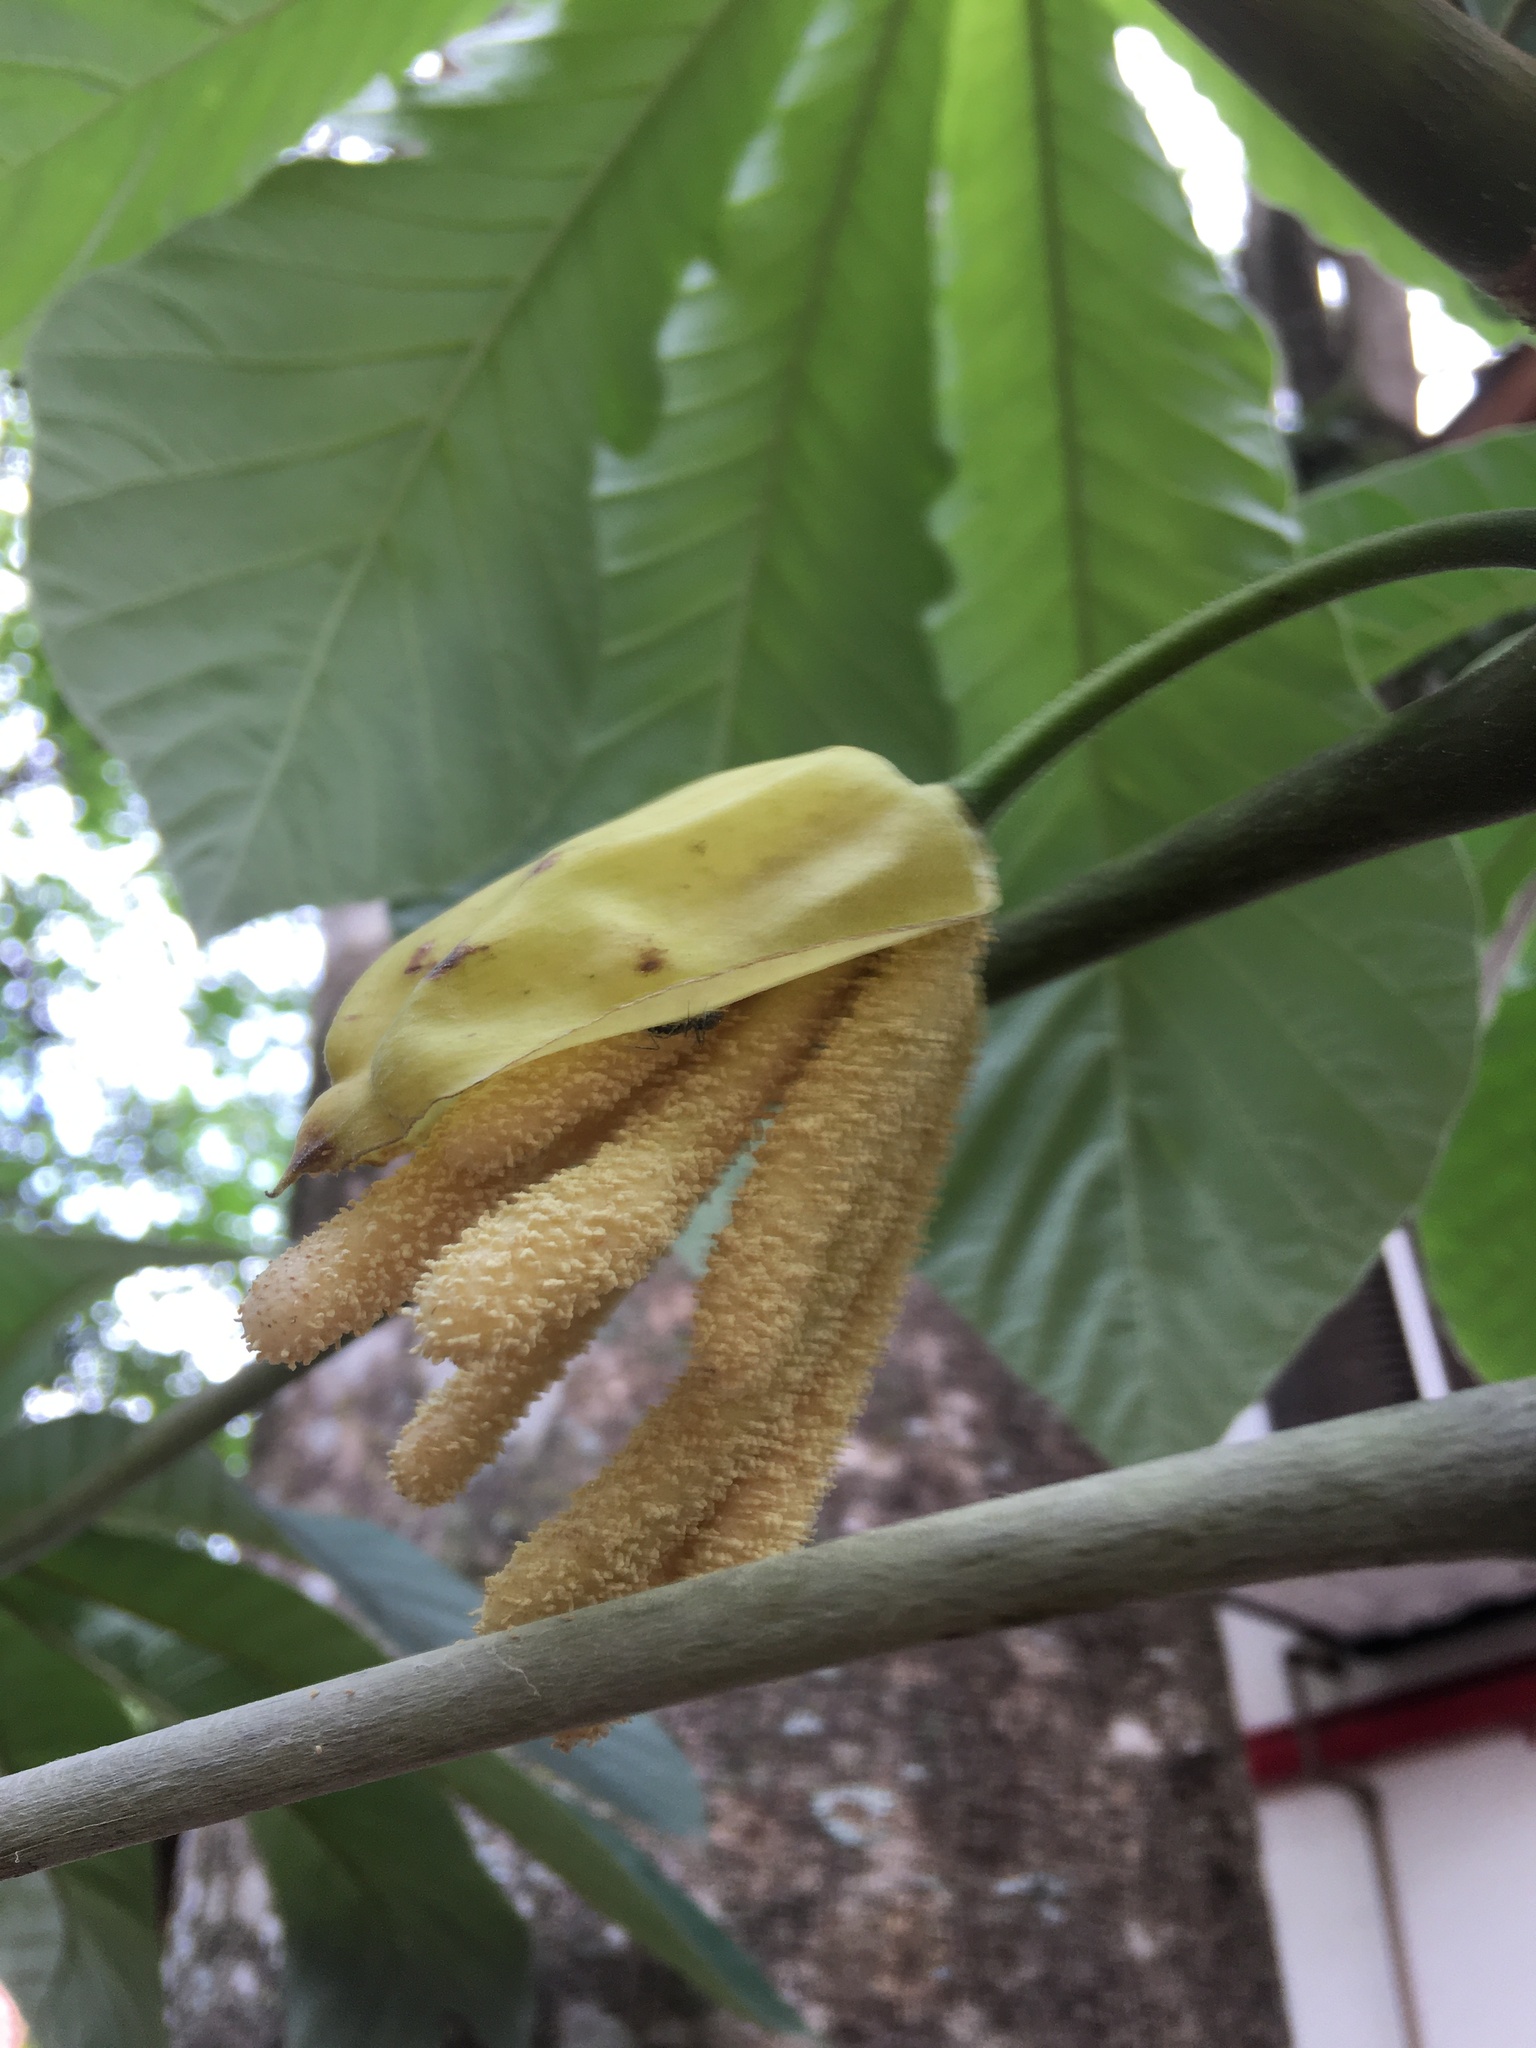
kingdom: Plantae
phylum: Tracheophyta
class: Magnoliopsida
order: Rosales
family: Urticaceae
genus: Cecropia
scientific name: Cecropia pachystachya
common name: Ambay pumpwood
